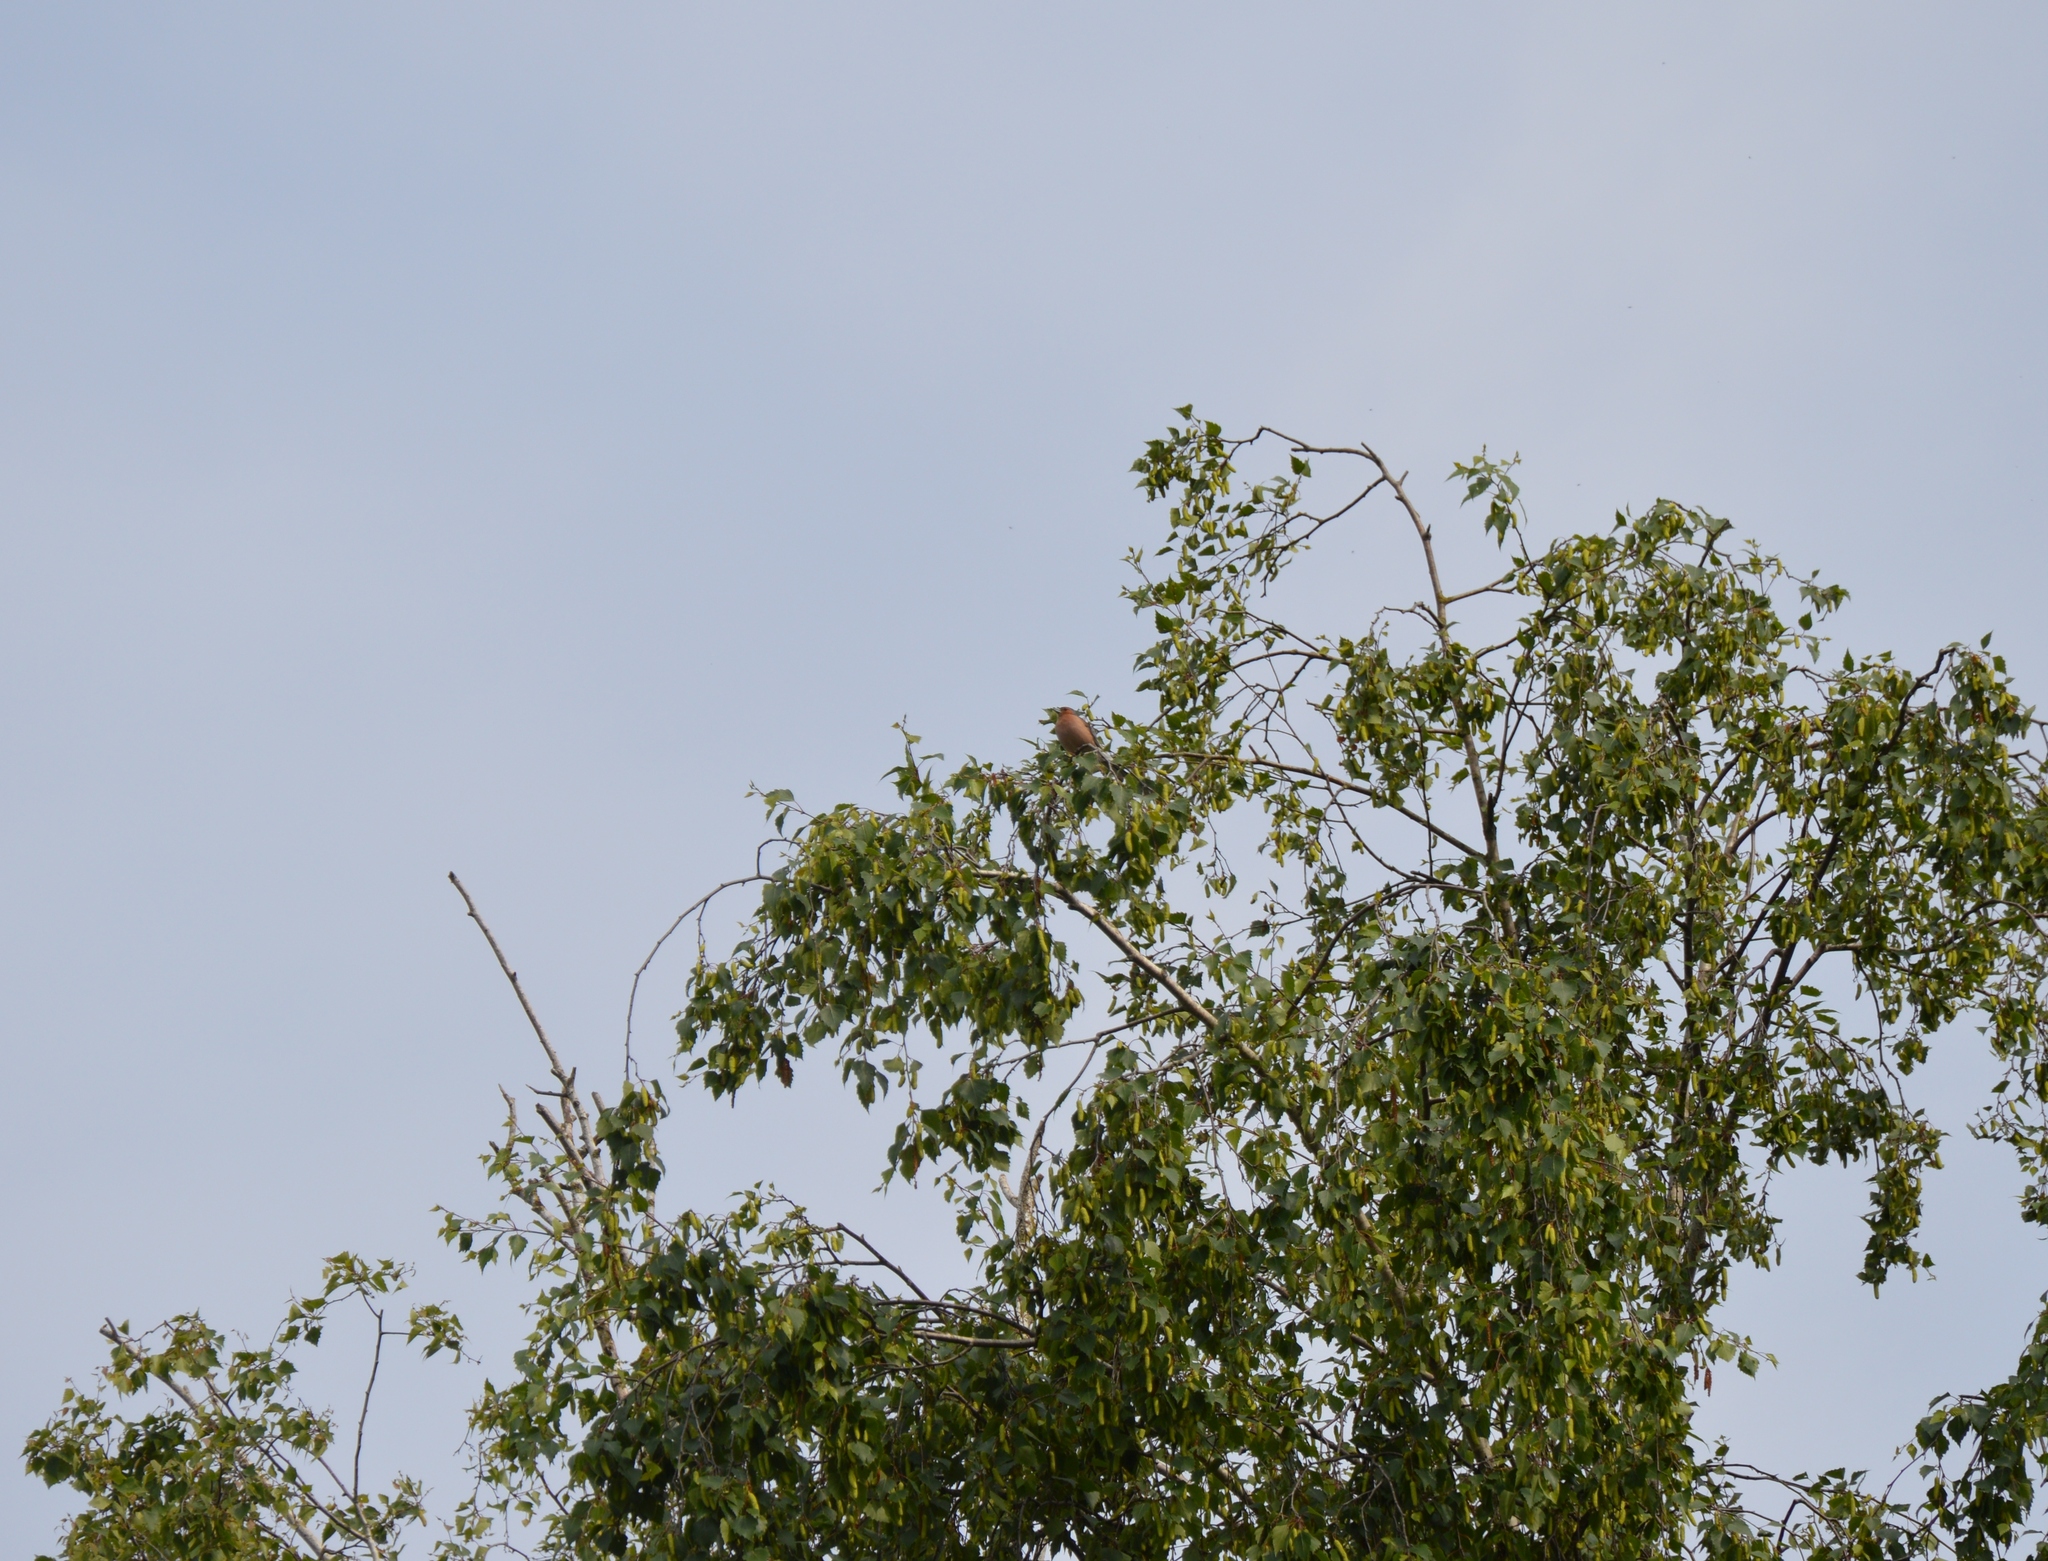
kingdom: Animalia
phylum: Chordata
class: Aves
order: Passeriformes
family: Fringillidae
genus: Fringilla
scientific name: Fringilla coelebs
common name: Common chaffinch
